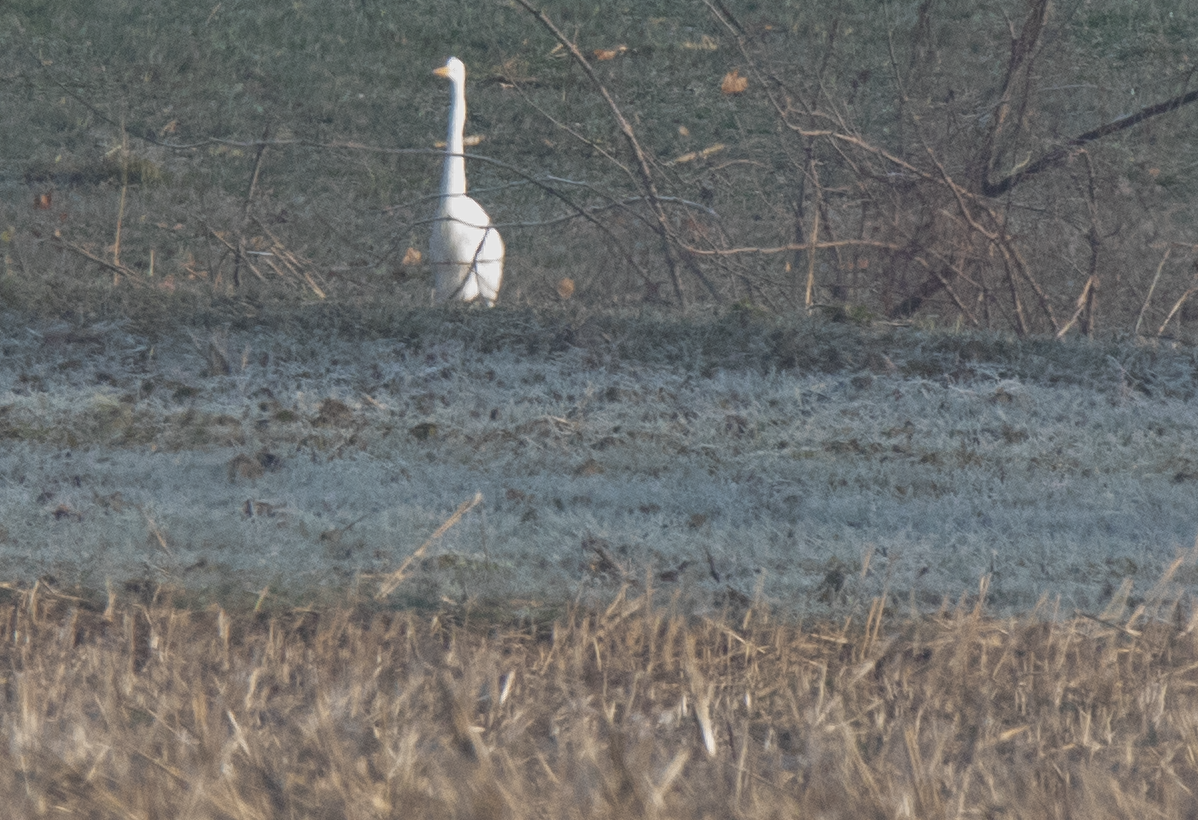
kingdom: Animalia
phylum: Chordata
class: Aves
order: Pelecaniformes
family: Ardeidae
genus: Ardea
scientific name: Ardea alba
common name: Great egret
